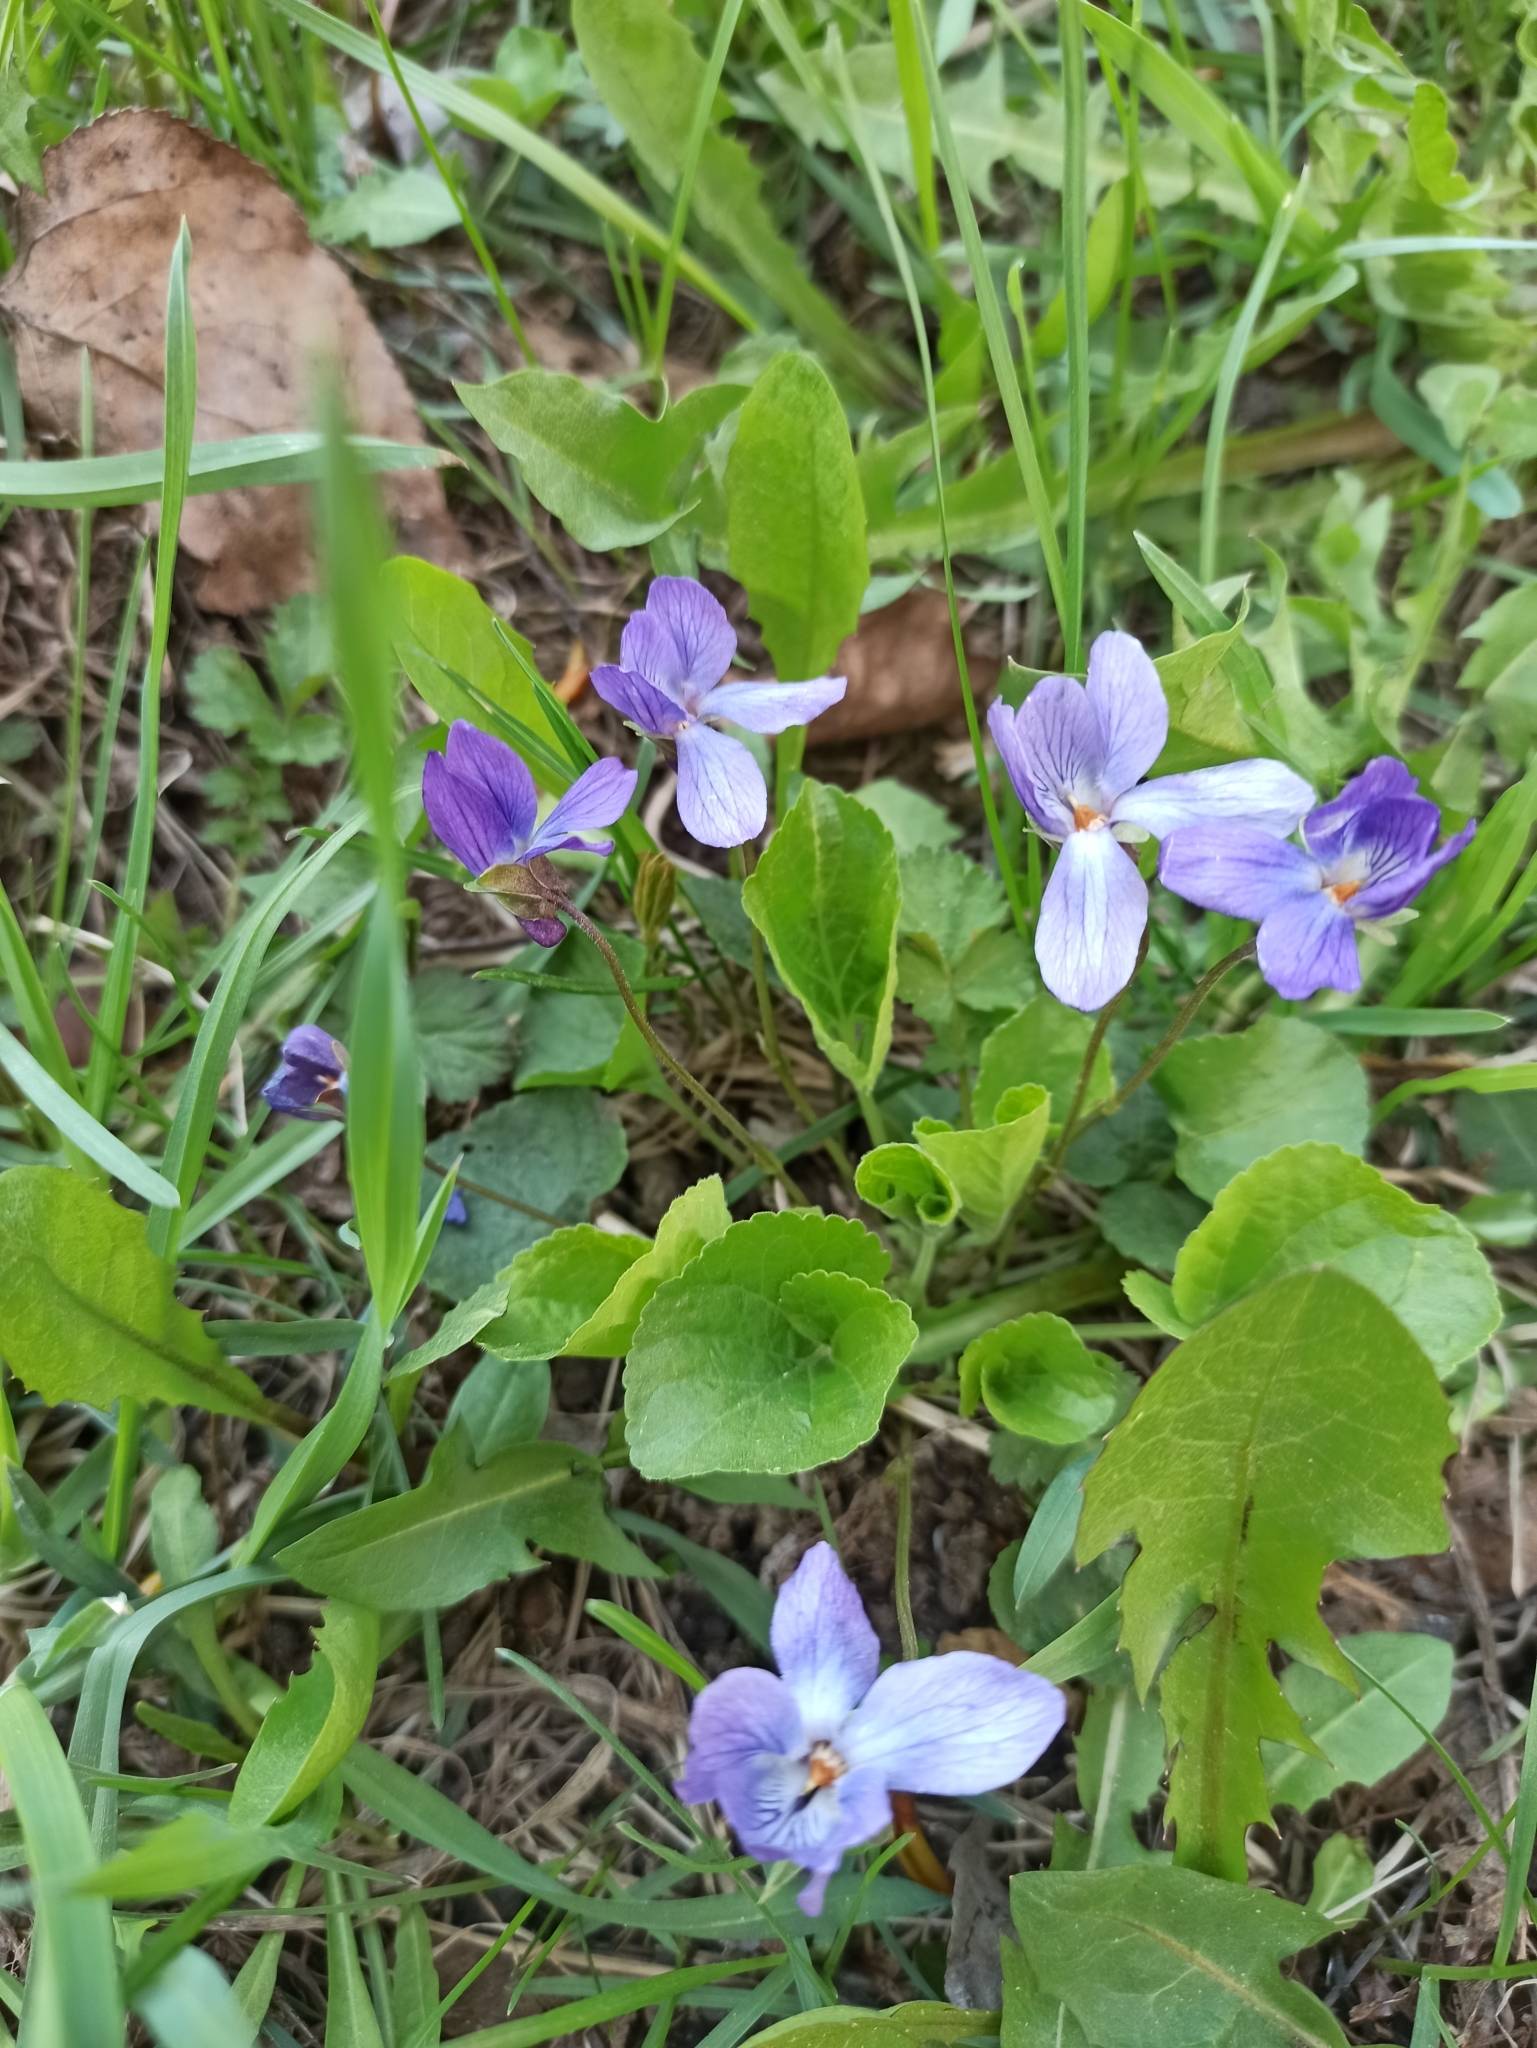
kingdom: Plantae
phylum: Tracheophyta
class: Magnoliopsida
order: Malpighiales
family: Violaceae
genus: Viola
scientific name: Viola odorata
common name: Sweet violet
